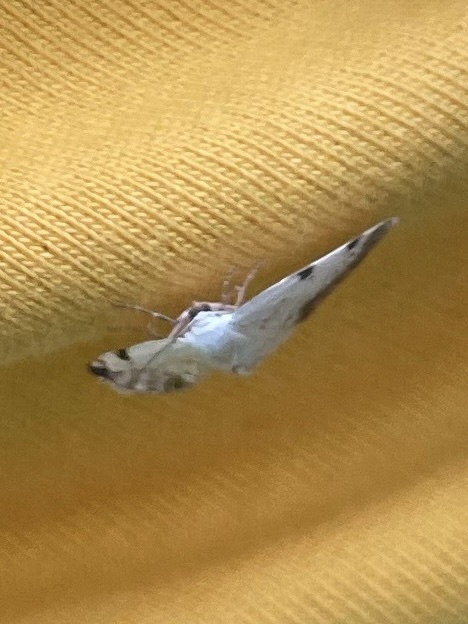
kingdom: Animalia
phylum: Arthropoda
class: Insecta
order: Lepidoptera
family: Geometridae
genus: Lomographa
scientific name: Lomographa bimaculata
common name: White-pinion spotted
